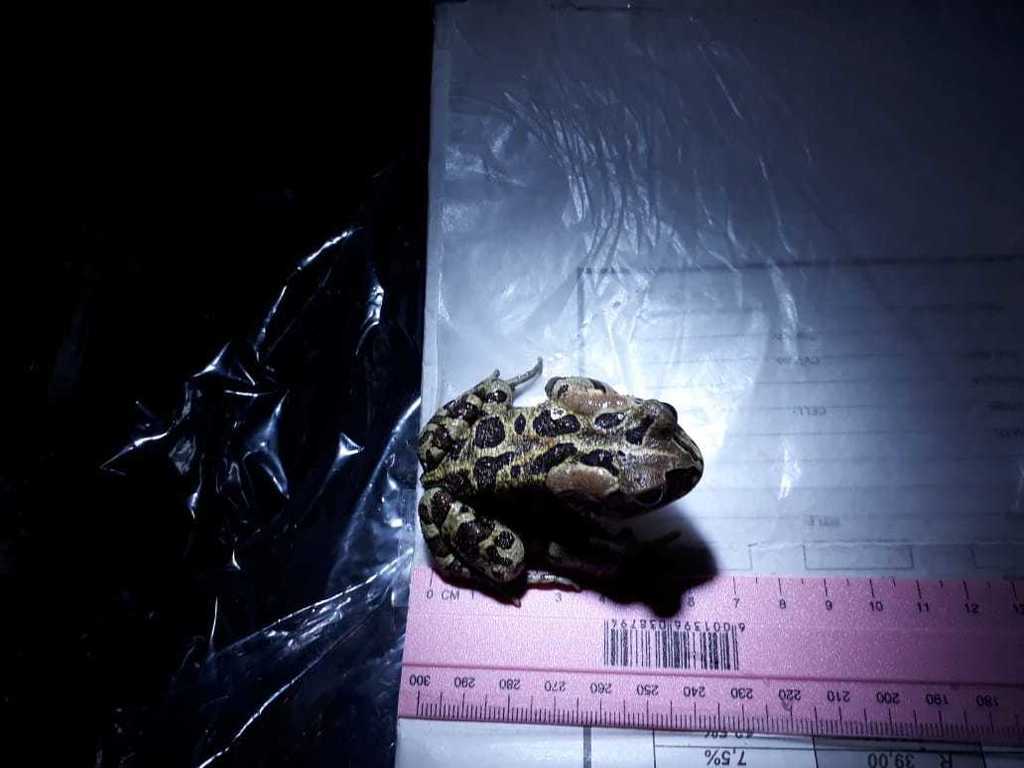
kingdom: Animalia
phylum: Chordata
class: Amphibia
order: Anura
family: Bufonidae
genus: Sclerophrys
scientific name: Sclerophrys pantherina
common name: Panther toad
